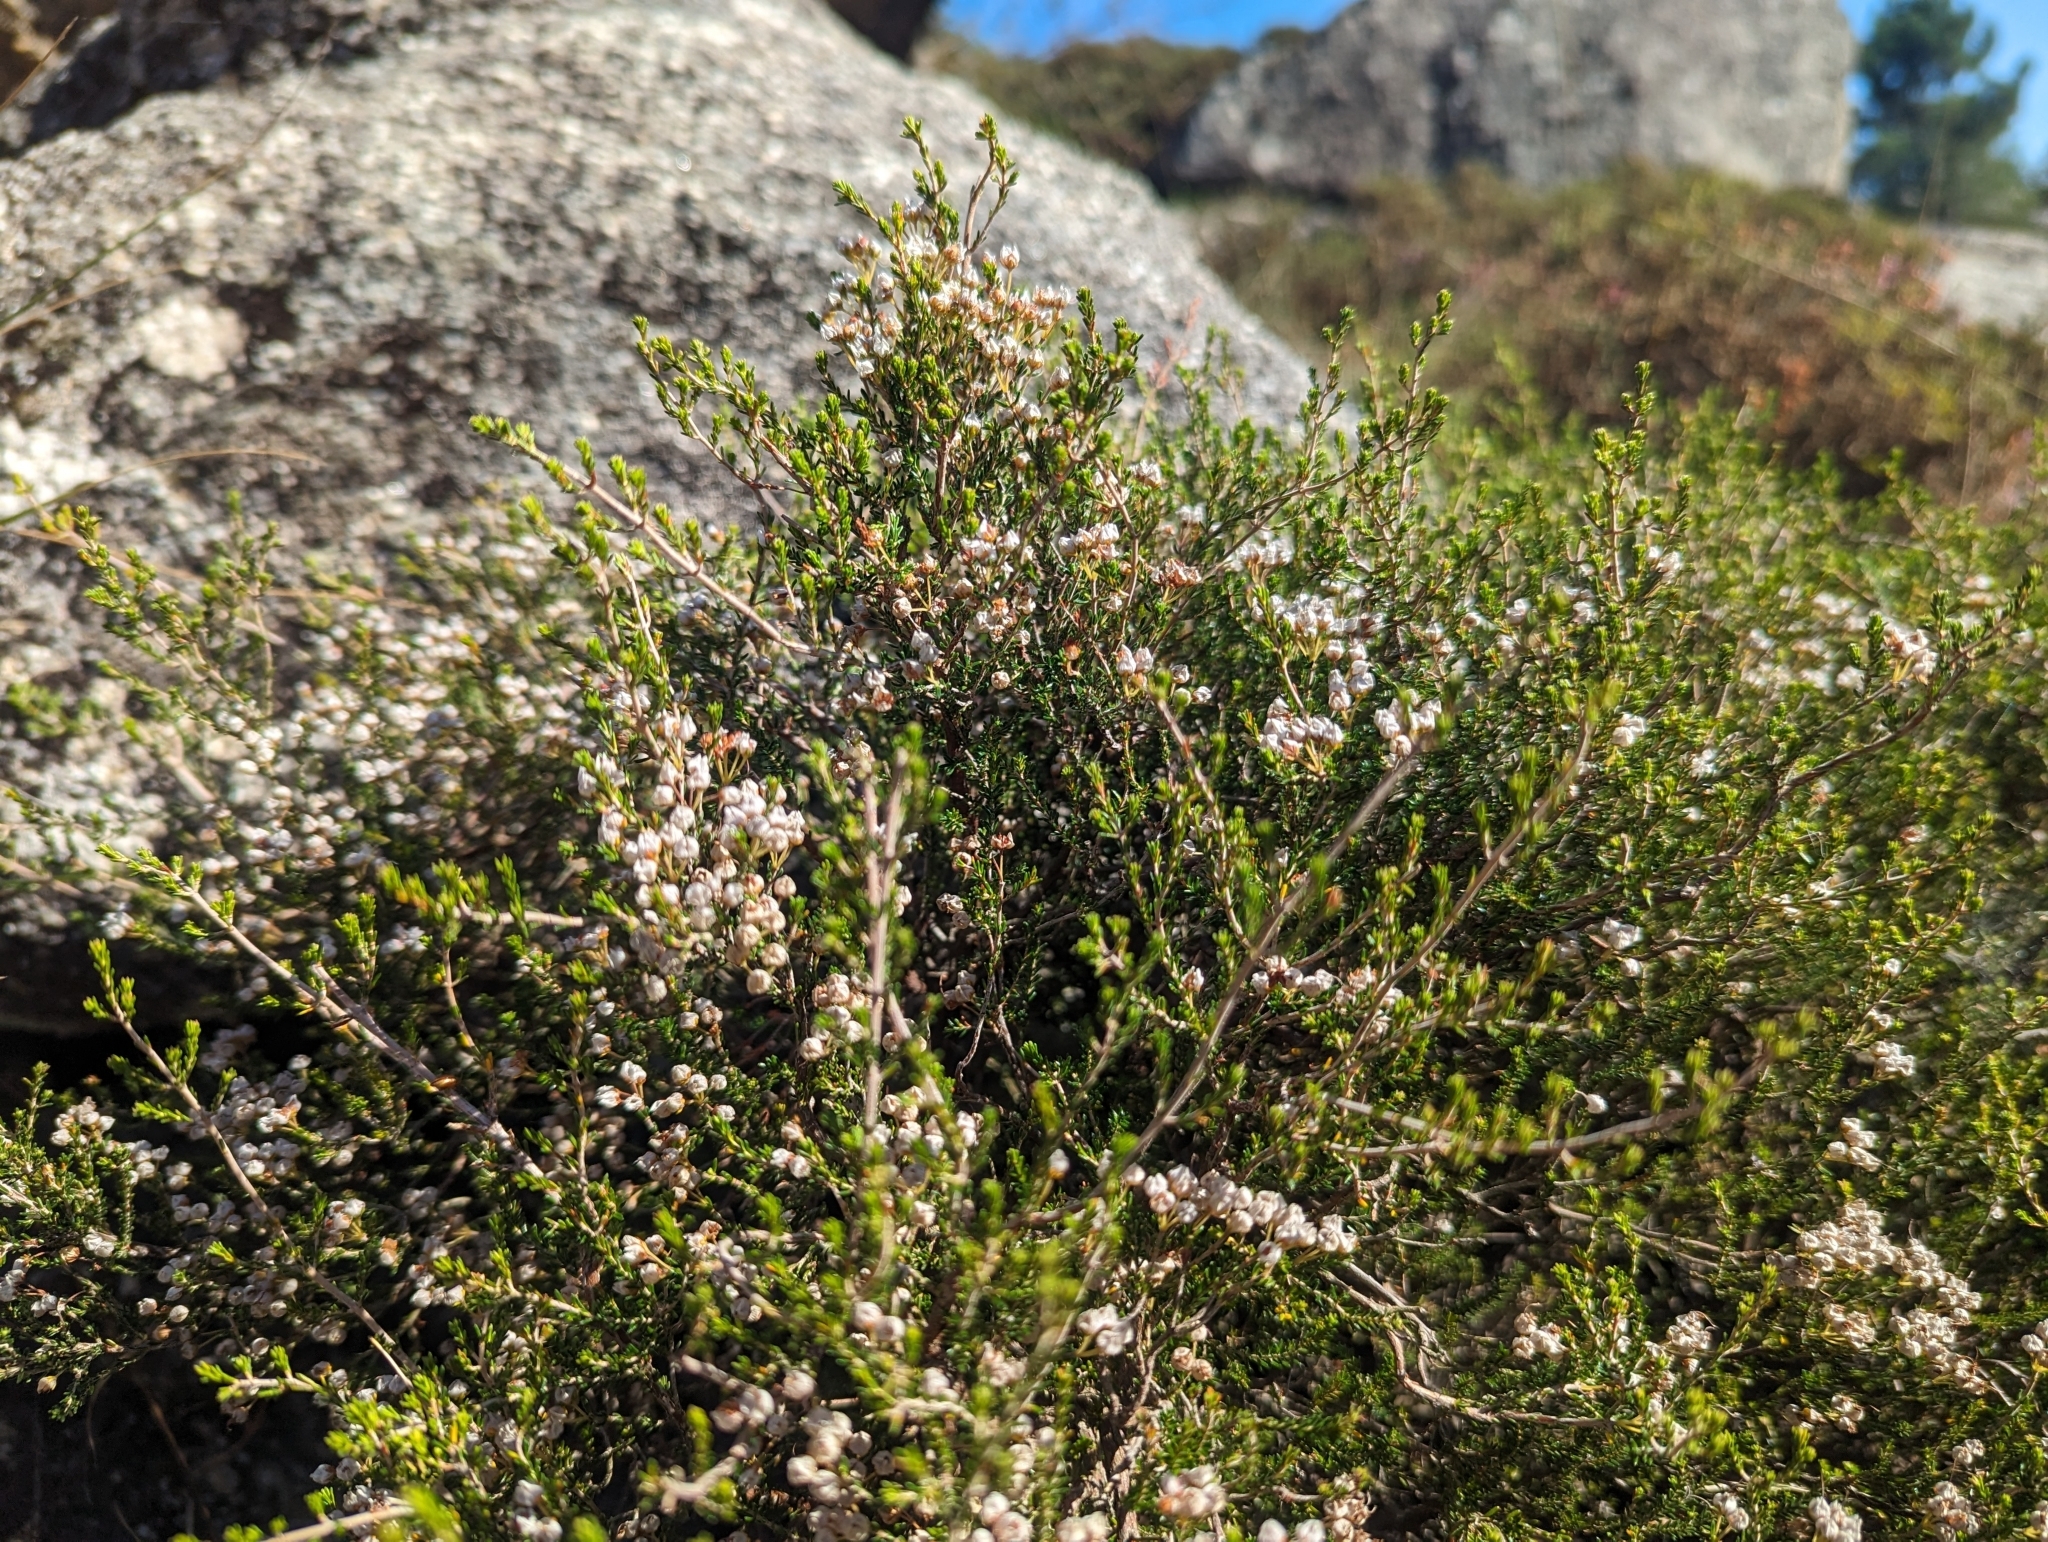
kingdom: Plantae
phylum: Tracheophyta
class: Magnoliopsida
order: Ericales
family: Ericaceae
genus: Erica
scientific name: Erica umbellata
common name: Dwarf spanish heath
